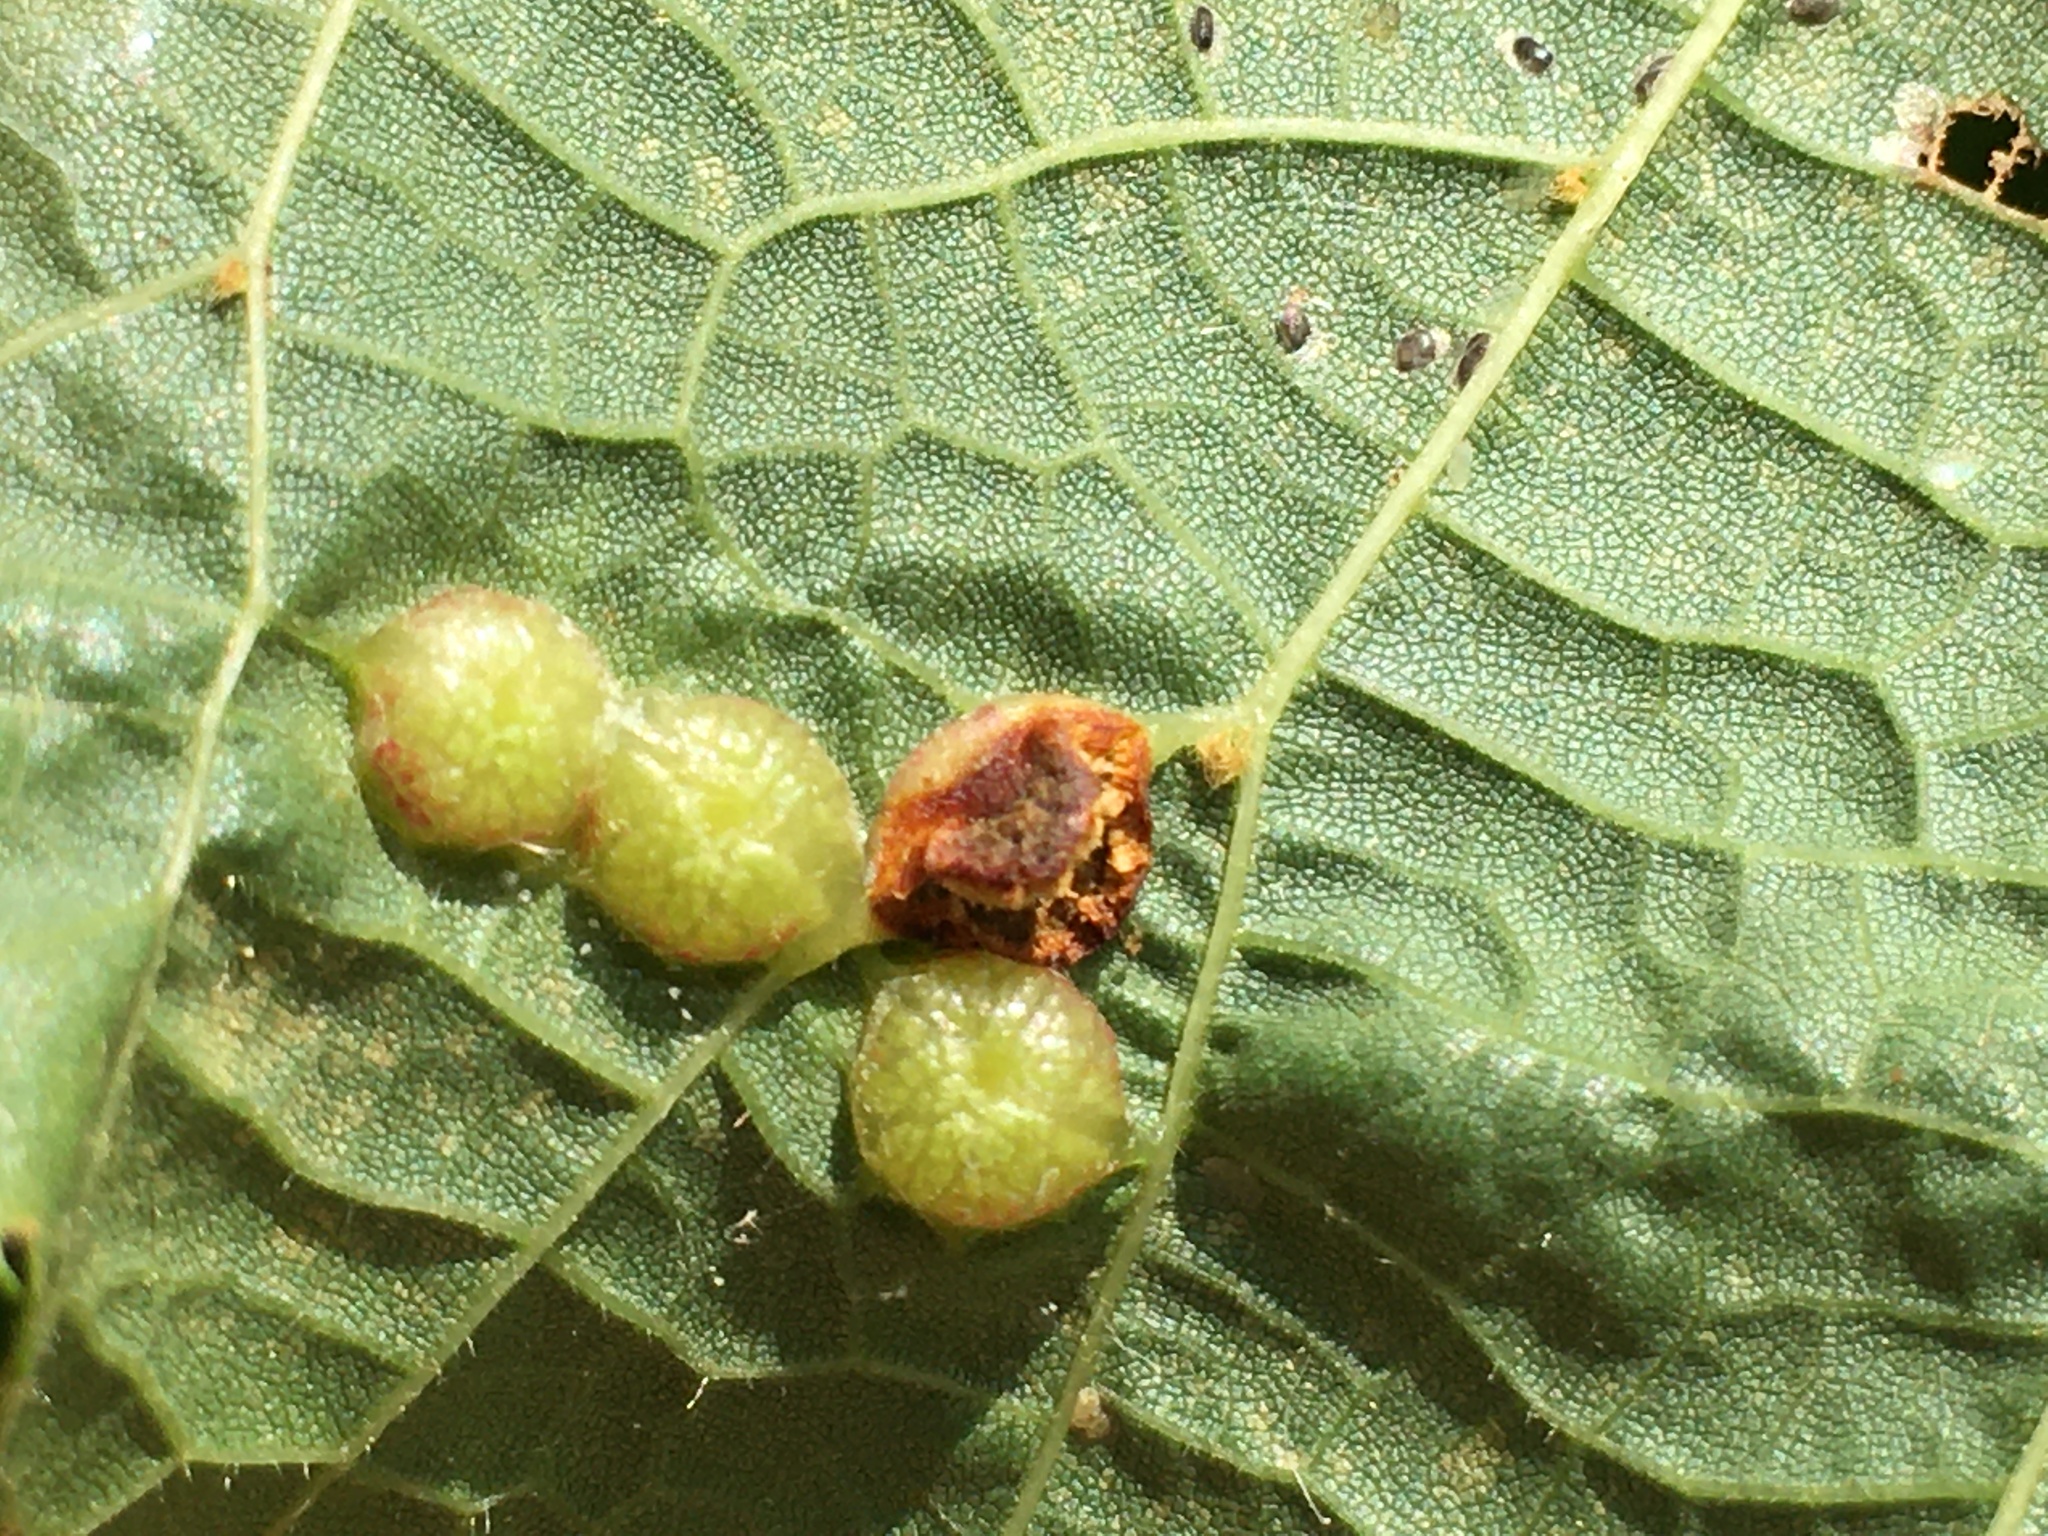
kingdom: Animalia
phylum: Arthropoda
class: Insecta
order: Diptera
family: Cecidomyiidae
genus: Contarinia
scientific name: Contarinia verrucicola
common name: Linden wart gall midge
